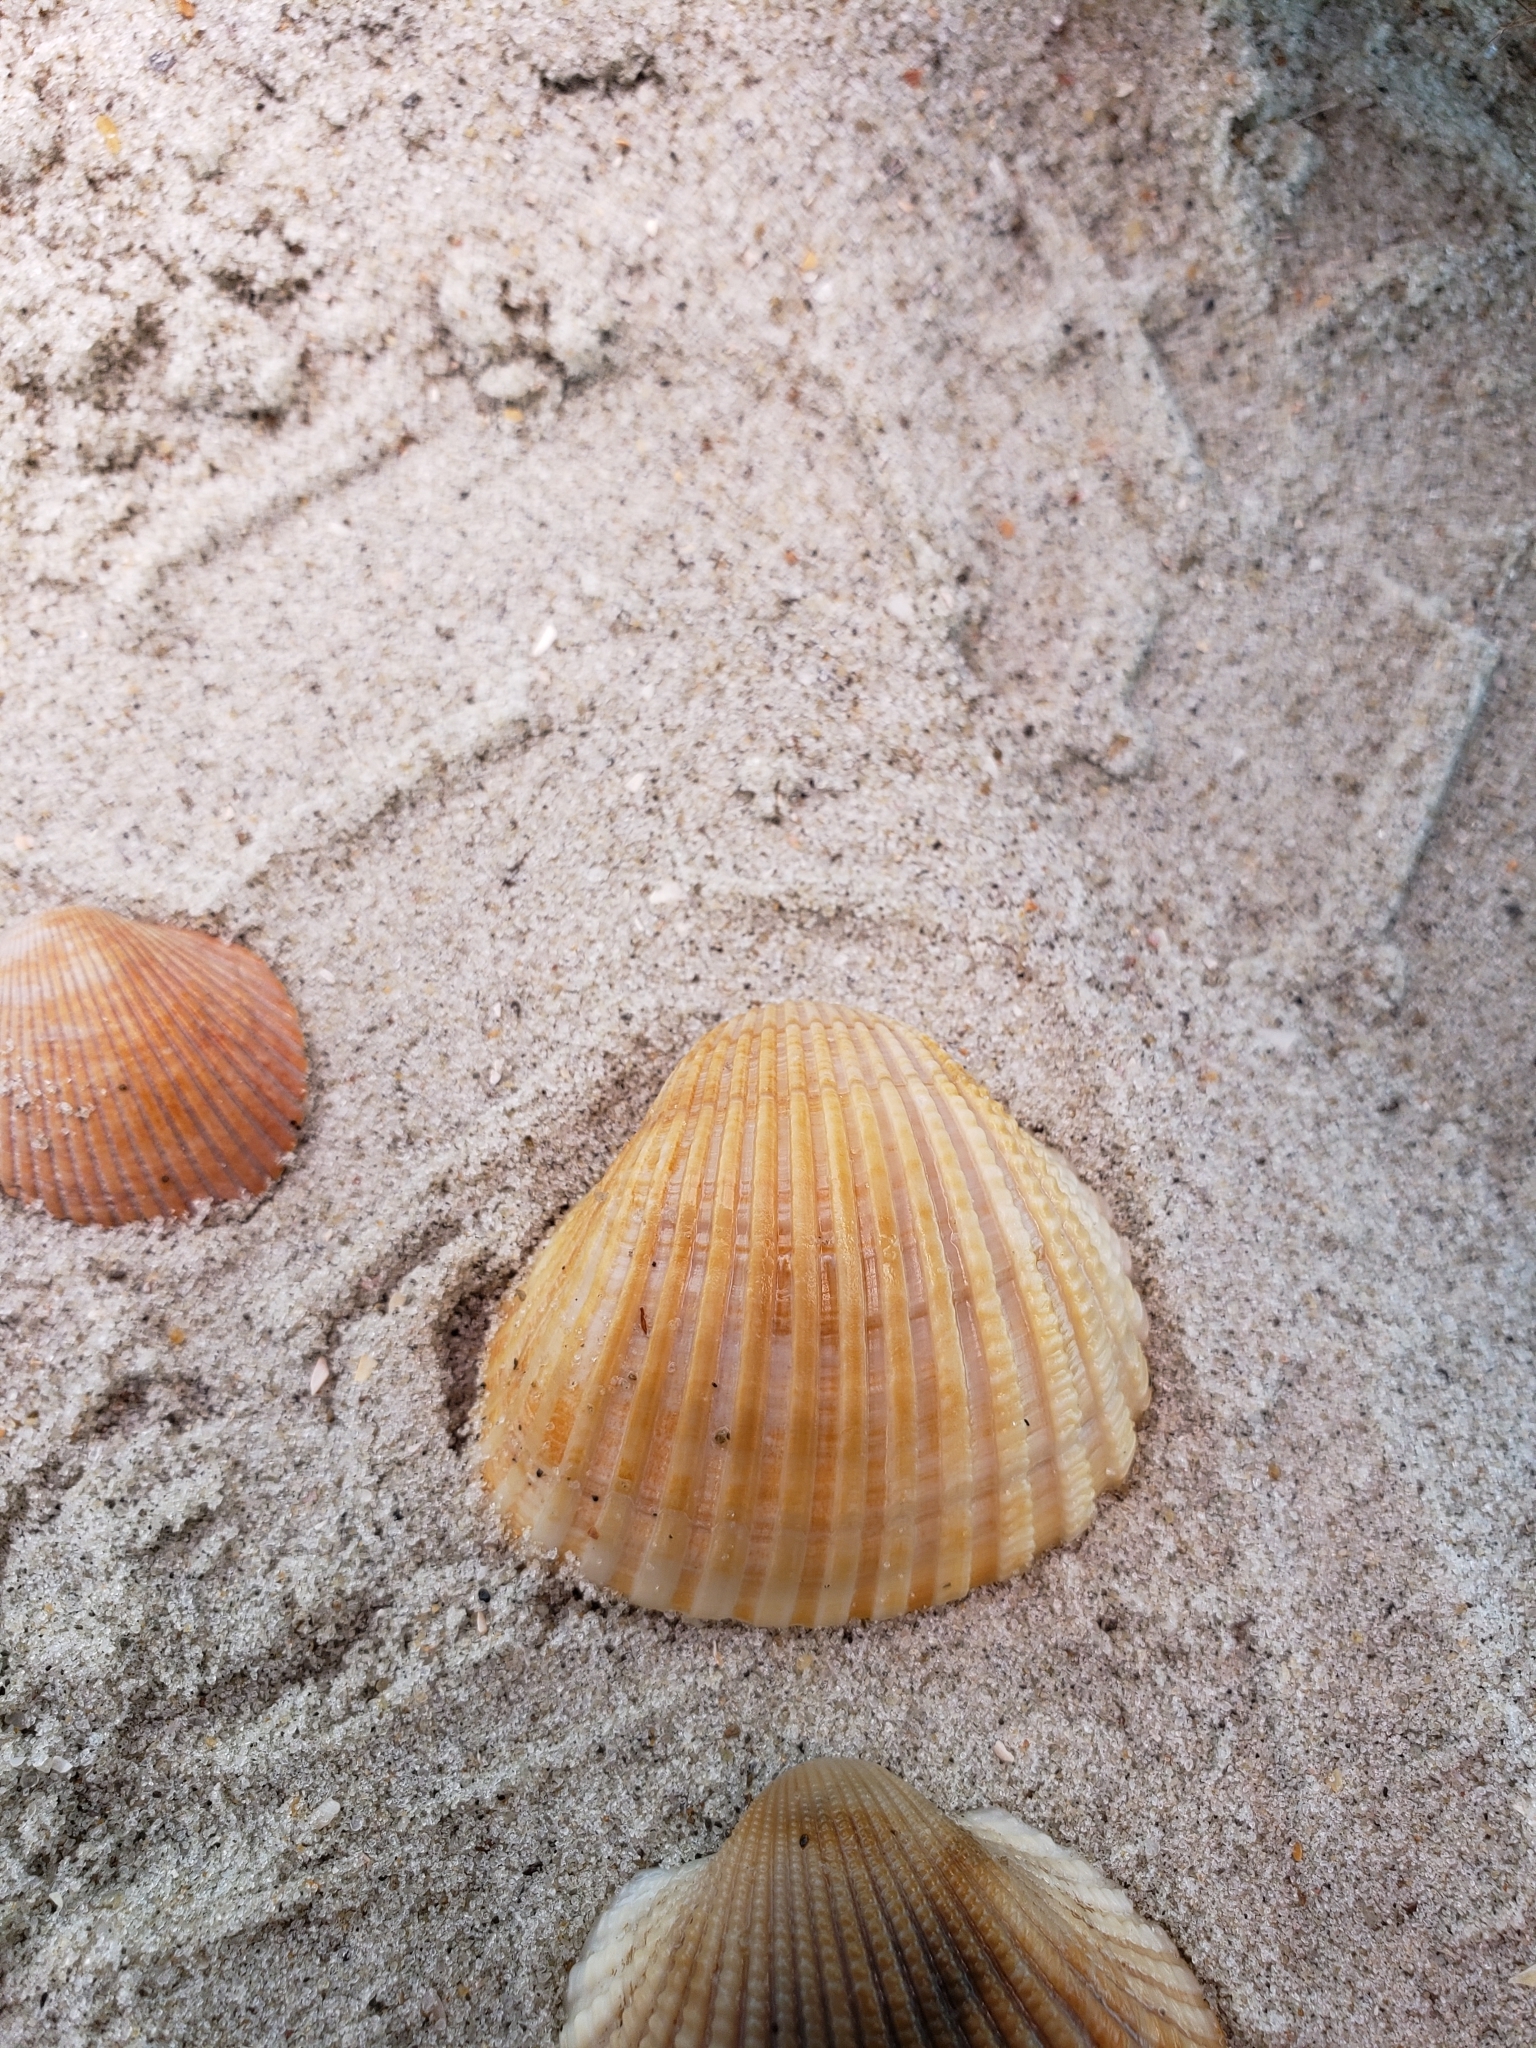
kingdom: Animalia
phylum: Mollusca
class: Bivalvia
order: Arcida
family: Arcidae
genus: Anadara
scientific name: Anadara brasiliana
